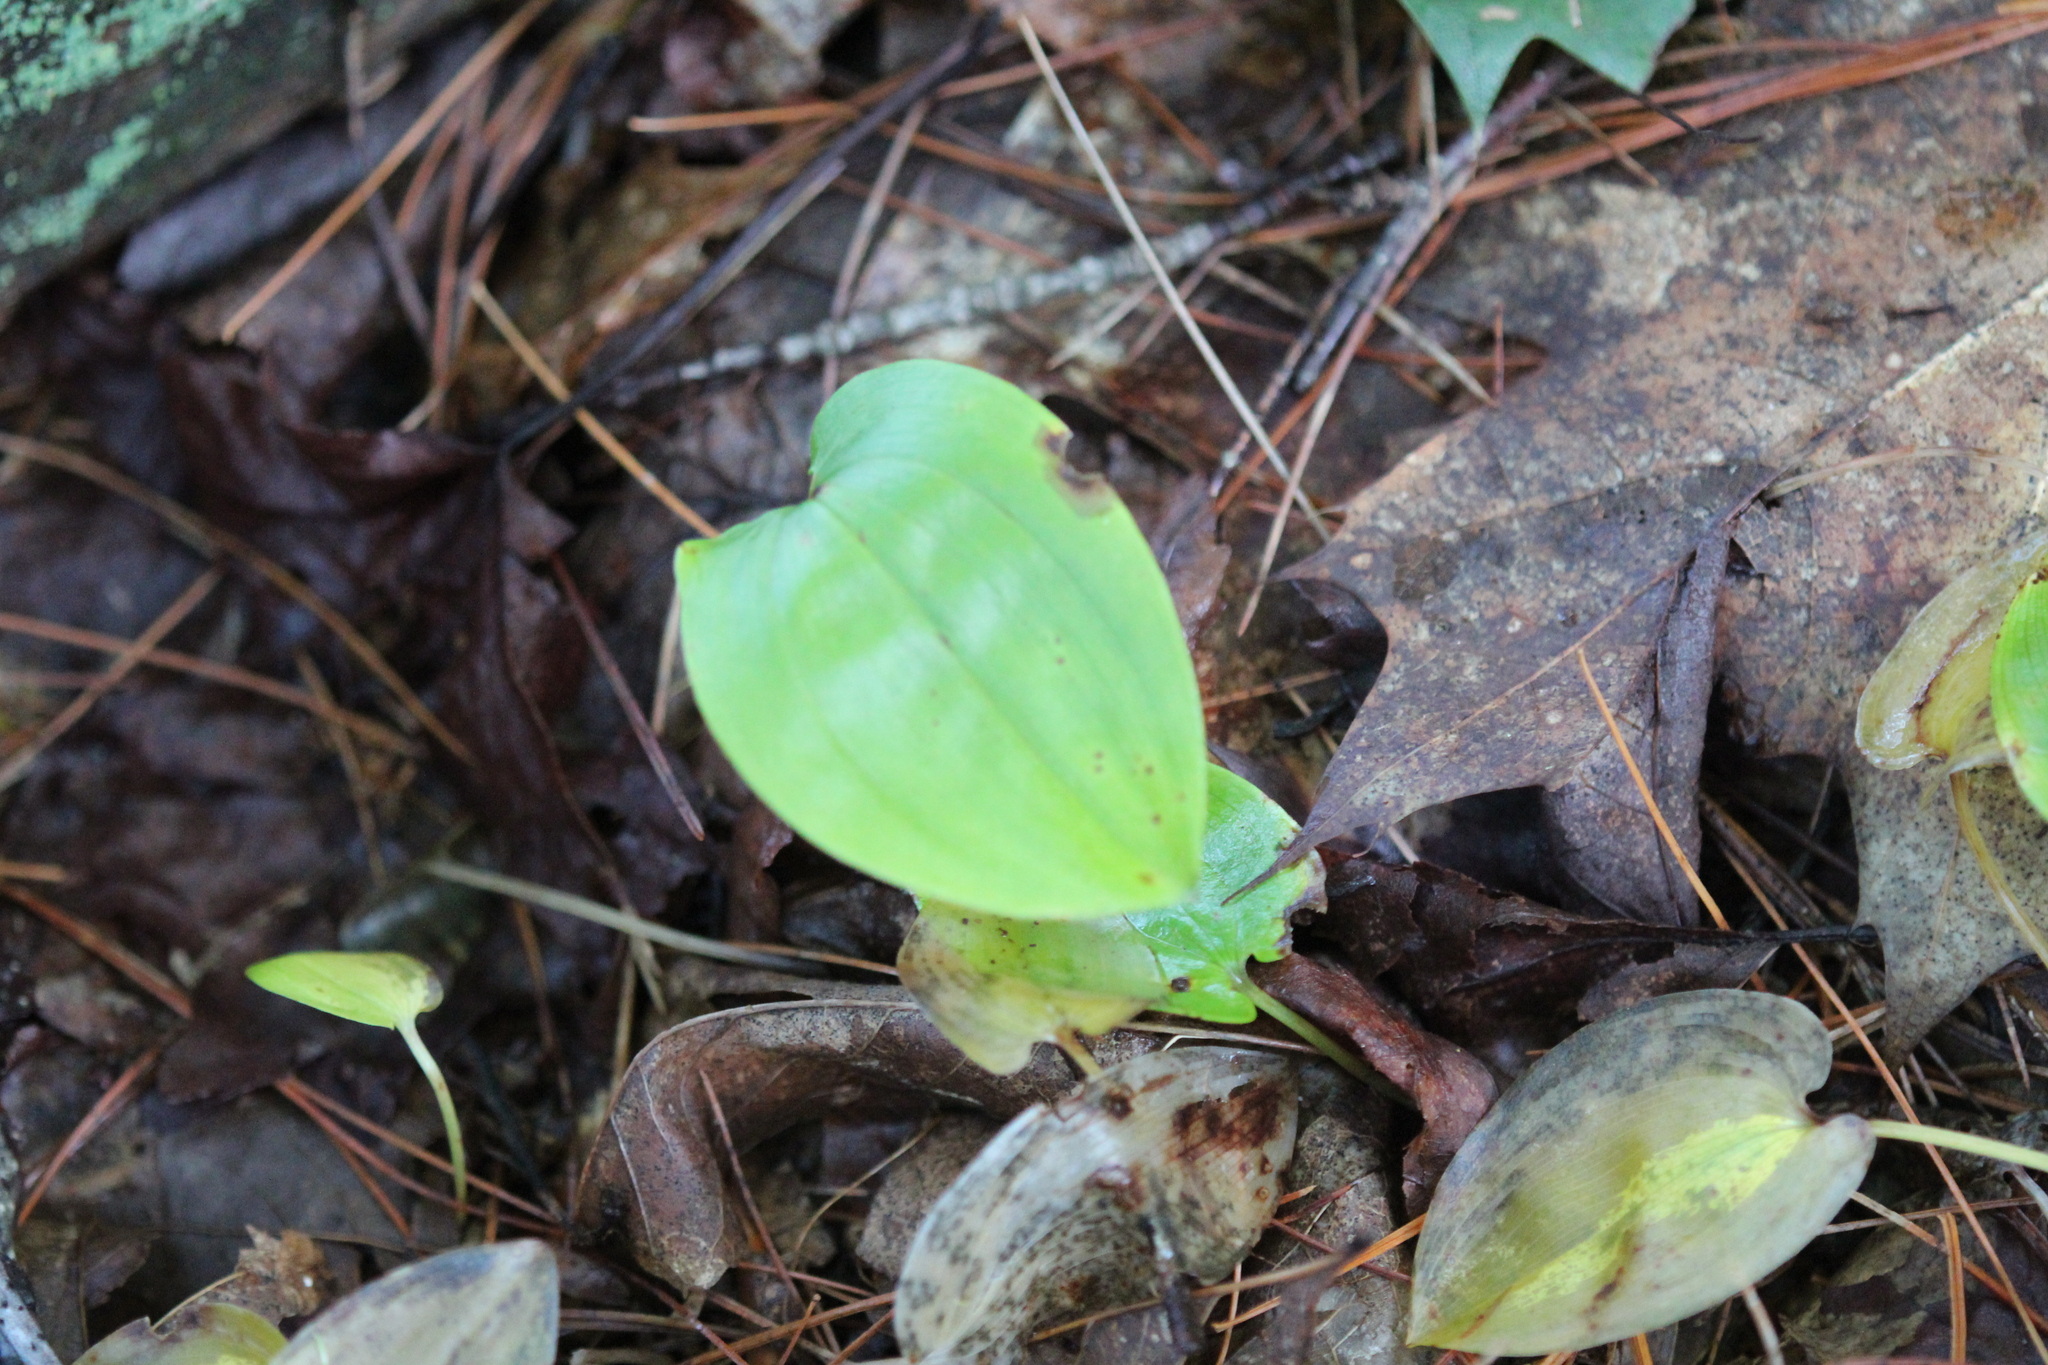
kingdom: Plantae
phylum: Tracheophyta
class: Liliopsida
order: Asparagales
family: Asparagaceae
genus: Maianthemum
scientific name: Maianthemum canadense
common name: False lily-of-the-valley
